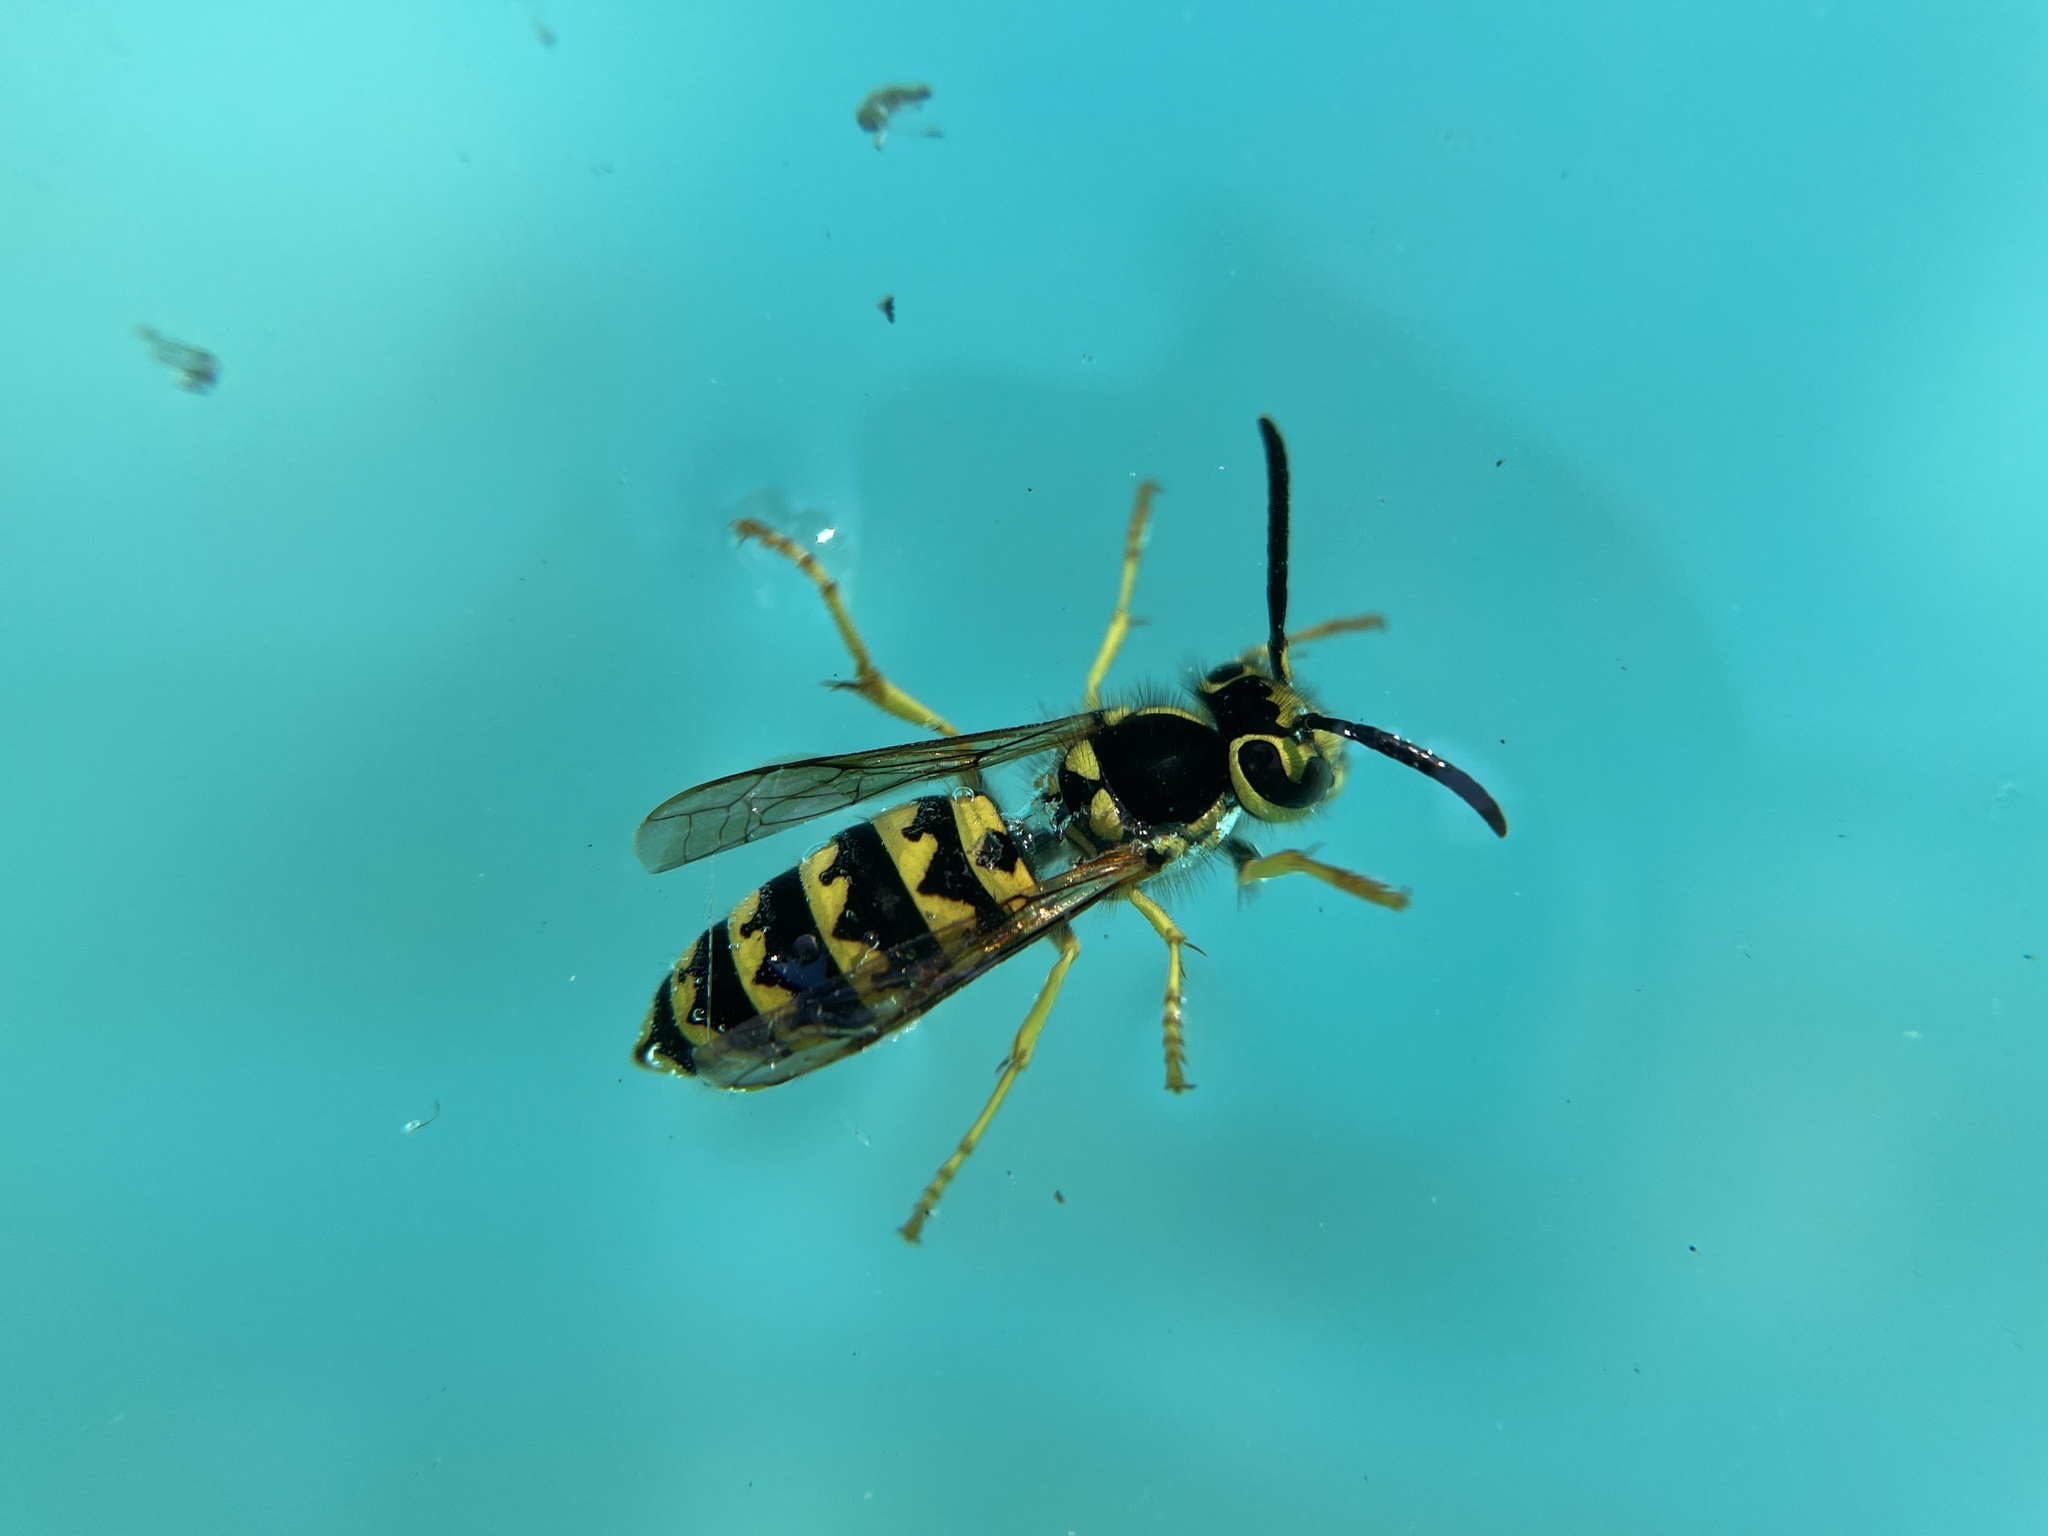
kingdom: Animalia
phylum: Arthropoda
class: Insecta
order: Hymenoptera
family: Vespidae
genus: Vespula
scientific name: Vespula pensylvanica
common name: Western yellowjacket
